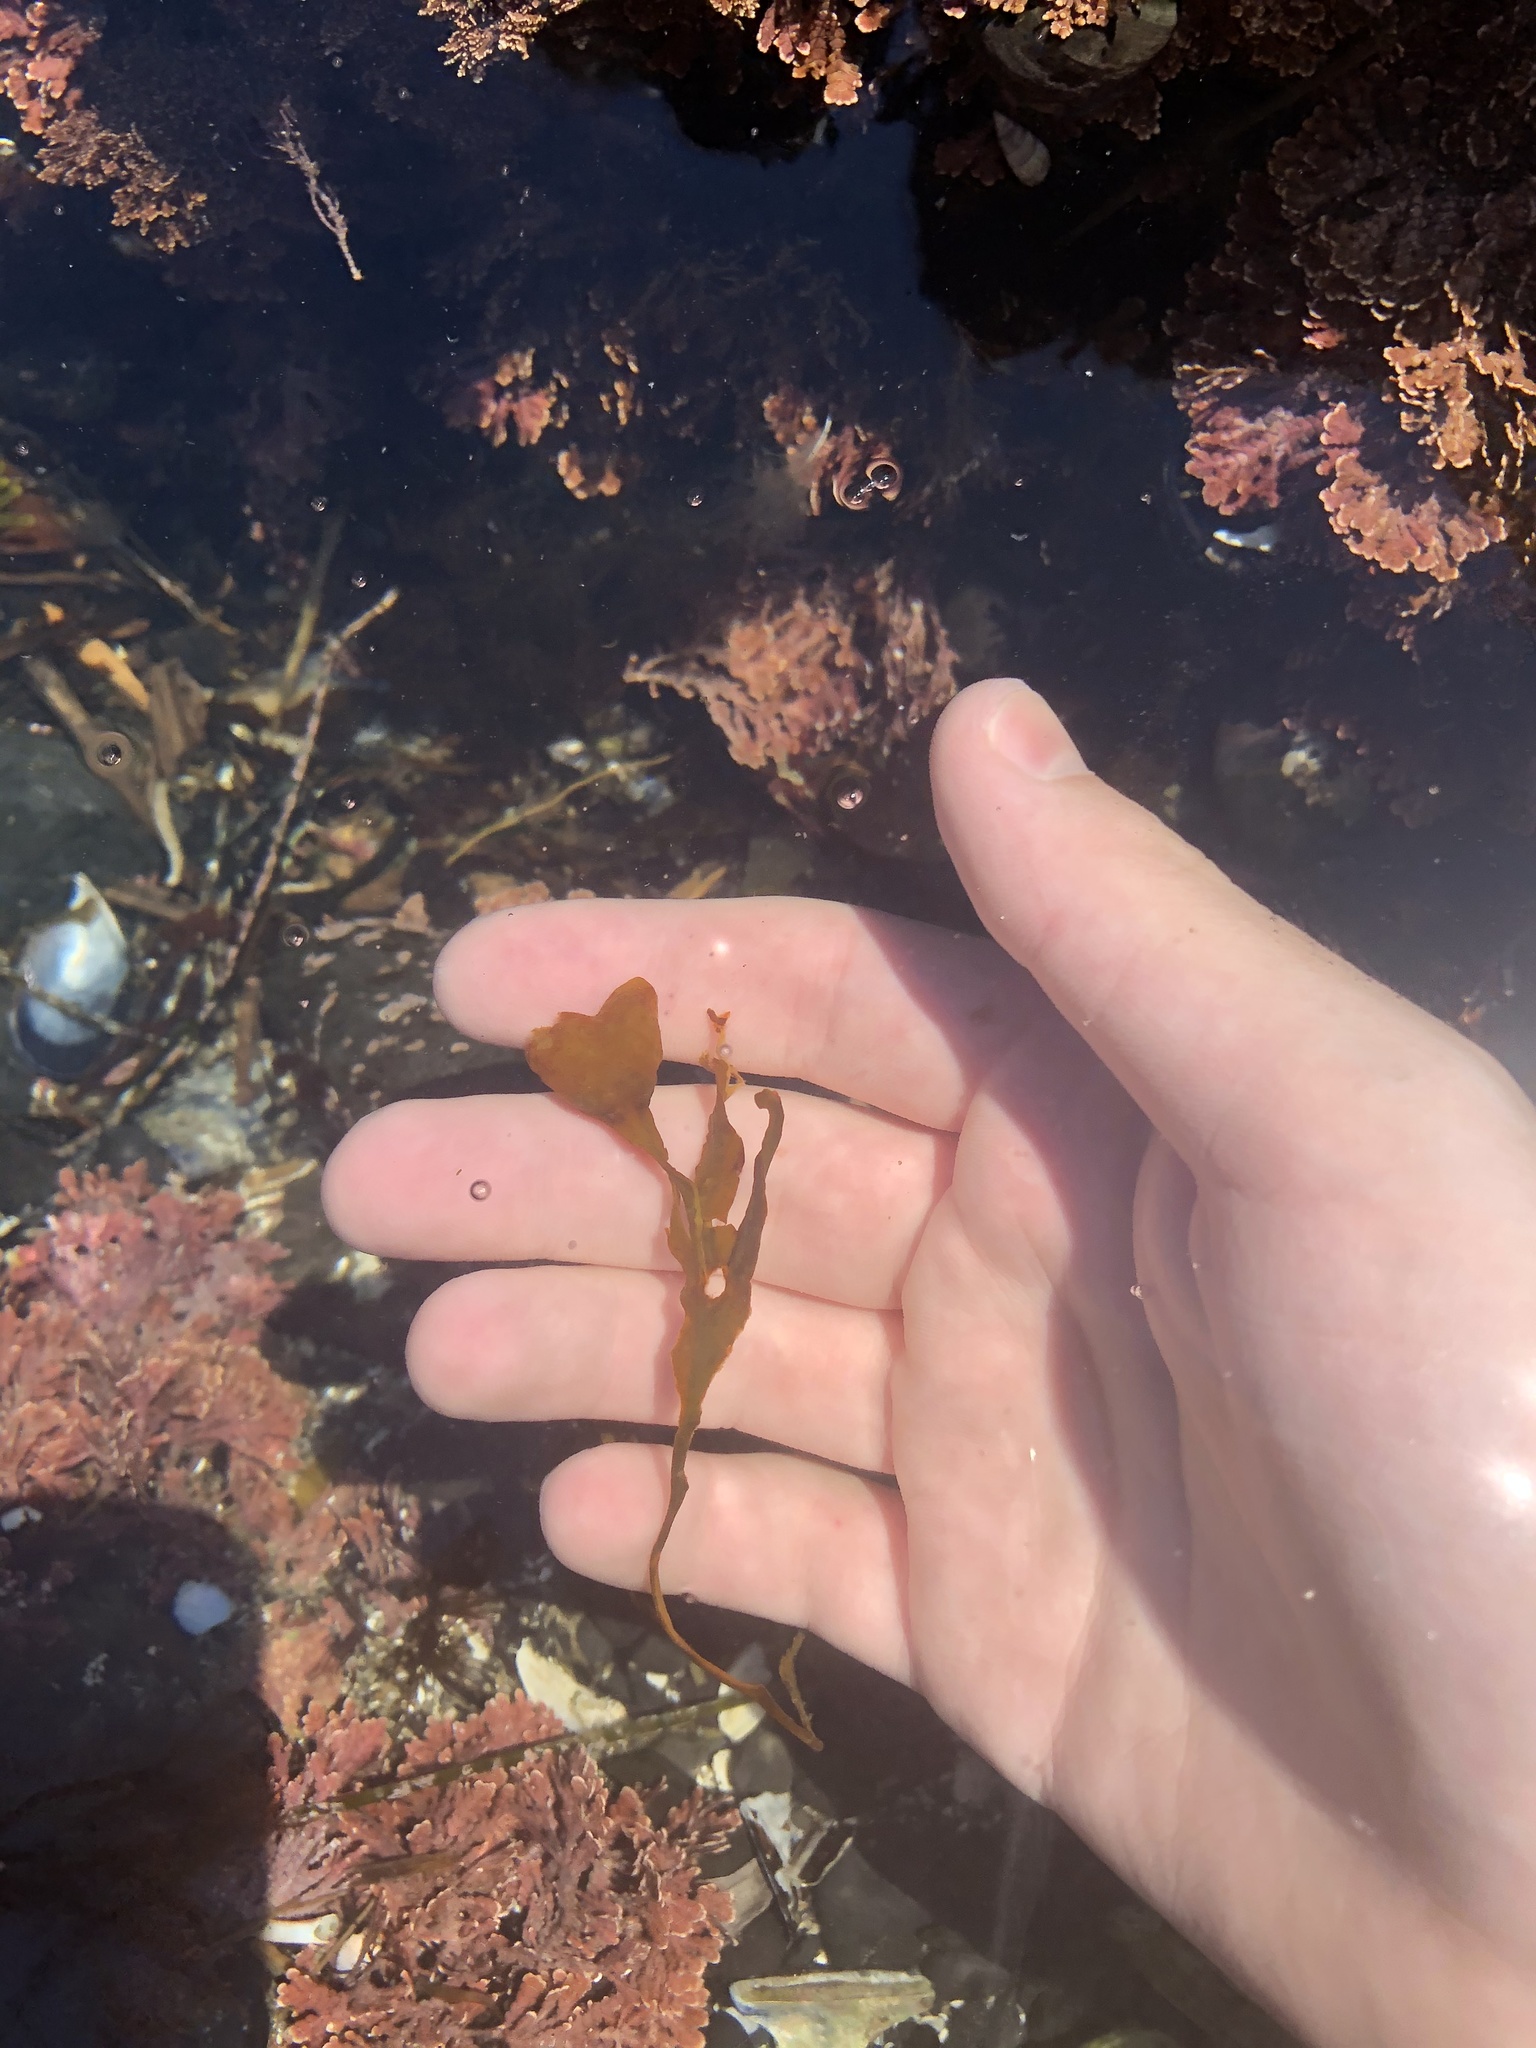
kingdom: Chromista
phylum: Ochrophyta
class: Phaeophyceae
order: Fucales
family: Fucaceae
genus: Fucus
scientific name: Fucus distichus
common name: Rockweed
